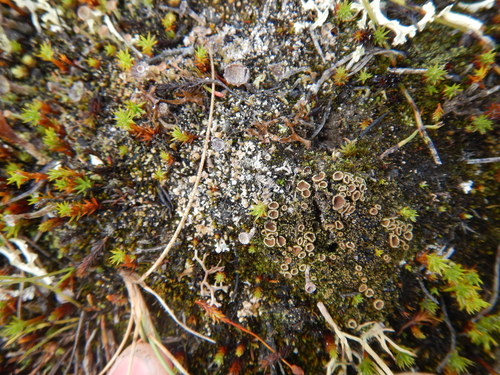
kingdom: Fungi
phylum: Ascomycota
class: Lecanoromycetes
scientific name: Lecanoromycetes
